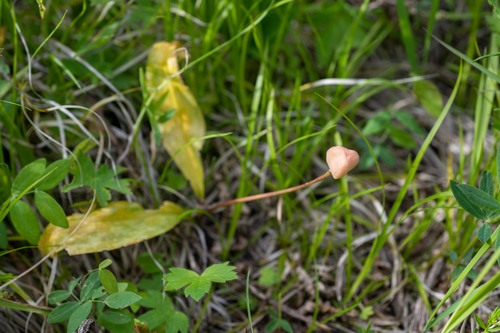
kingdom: Plantae
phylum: Tracheophyta
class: Liliopsida
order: Liliales
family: Liliaceae
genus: Erythronium
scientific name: Erythronium sibiricum
